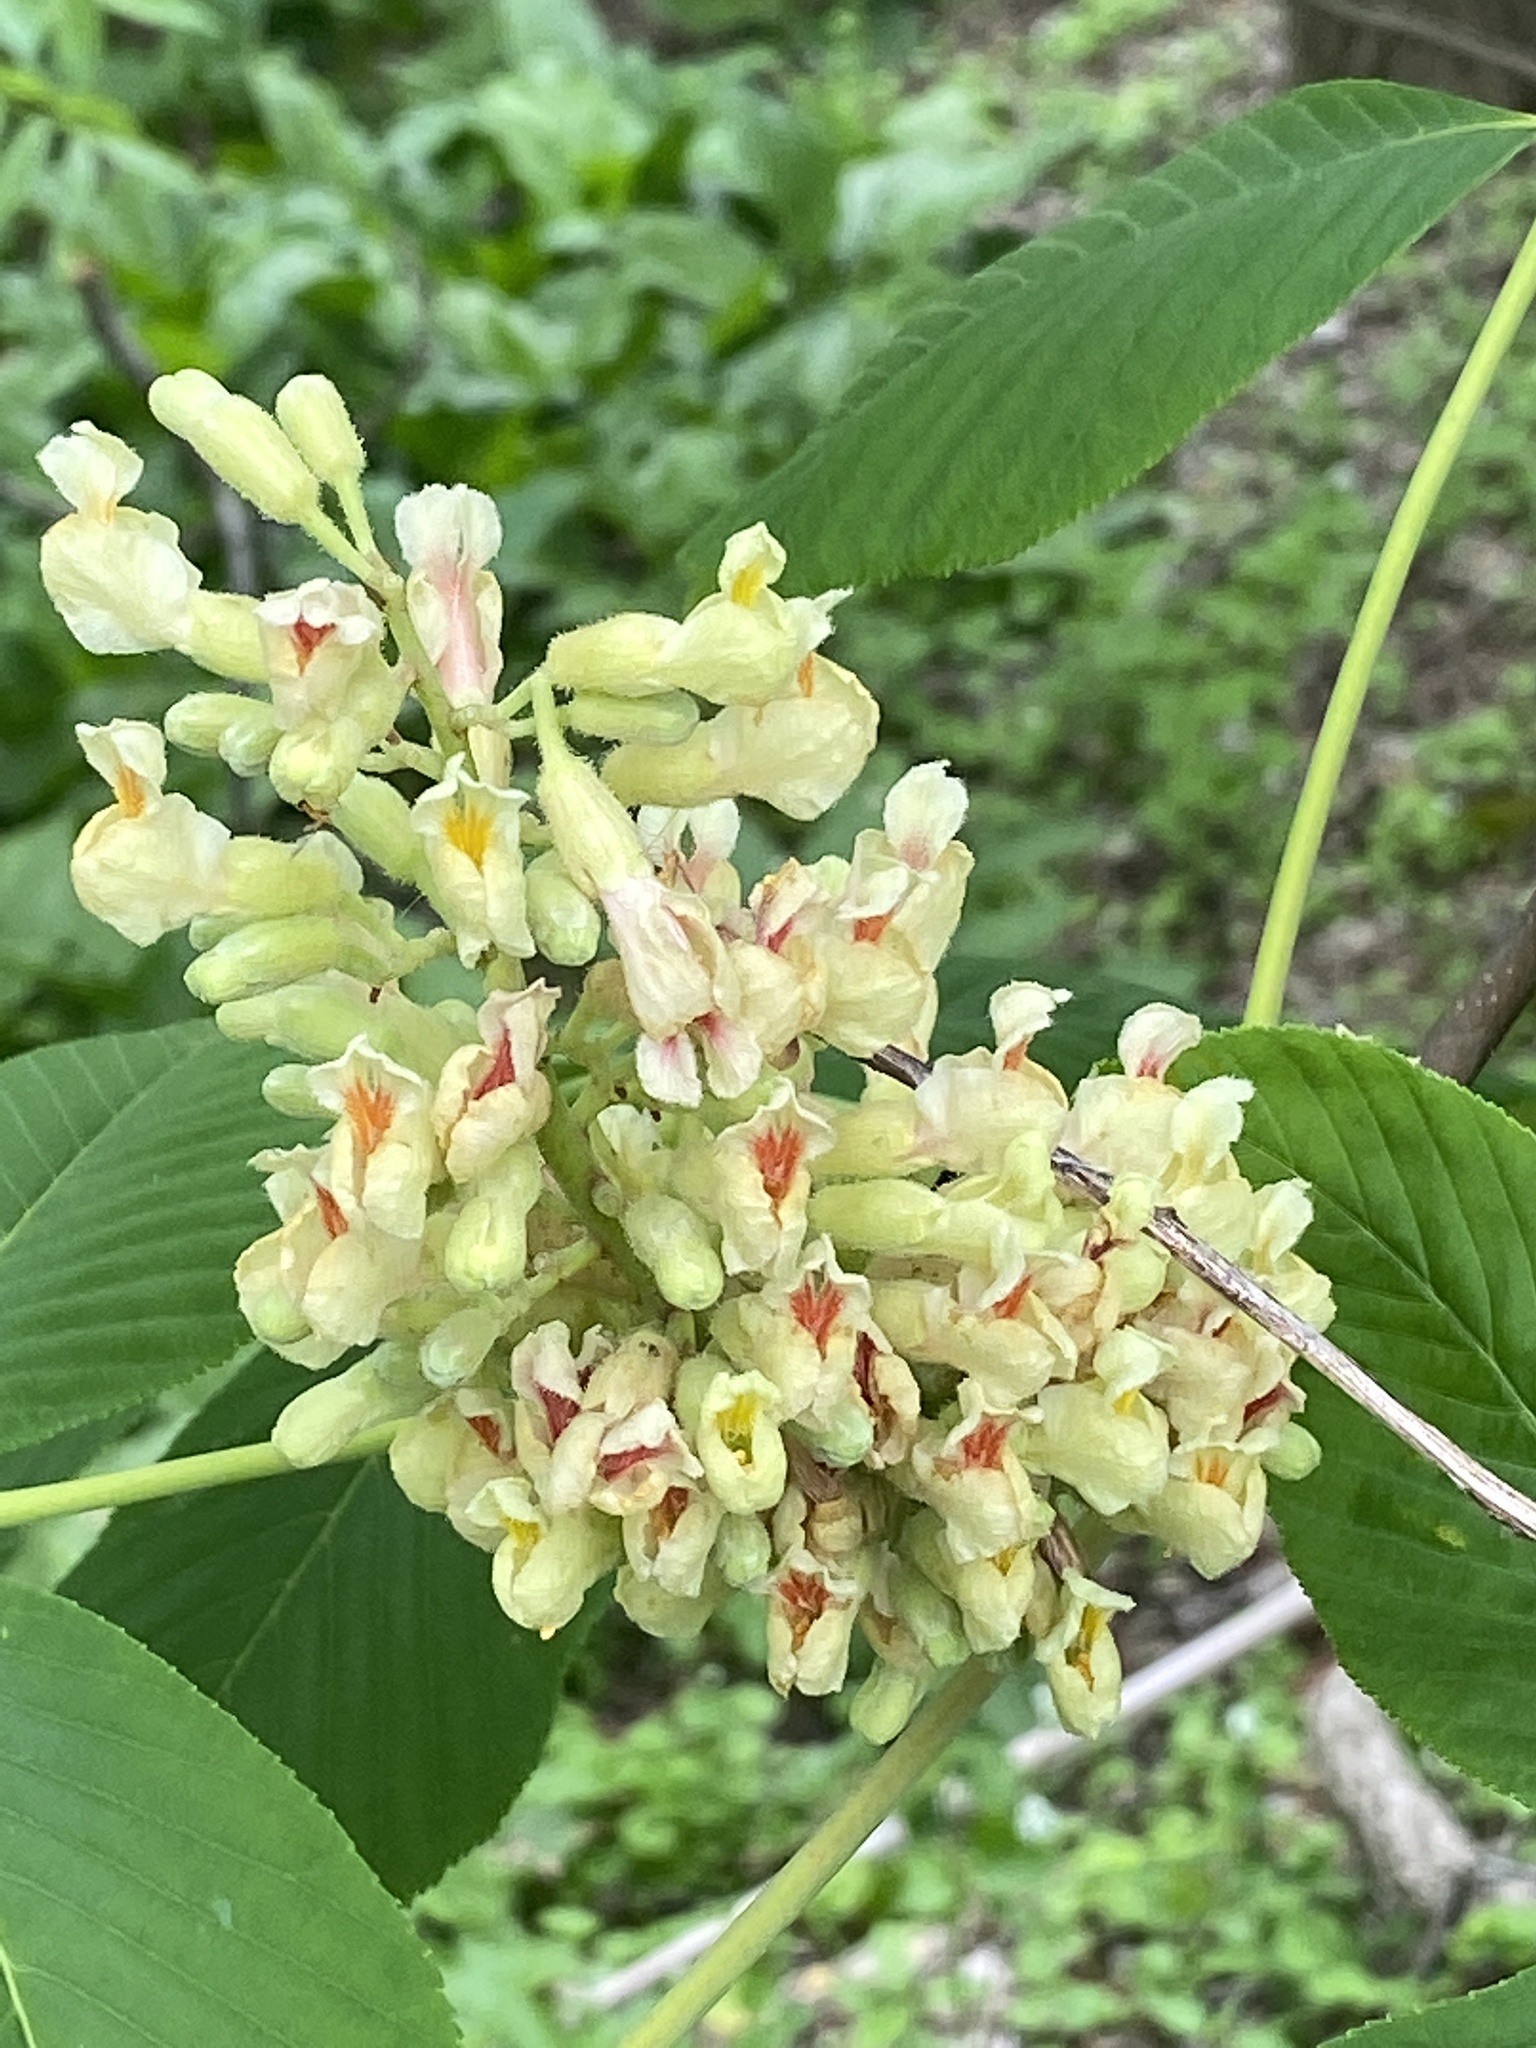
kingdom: Plantae
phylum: Tracheophyta
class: Magnoliopsida
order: Sapindales
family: Sapindaceae
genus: Aesculus
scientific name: Aesculus flava
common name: Yellow buckeye
